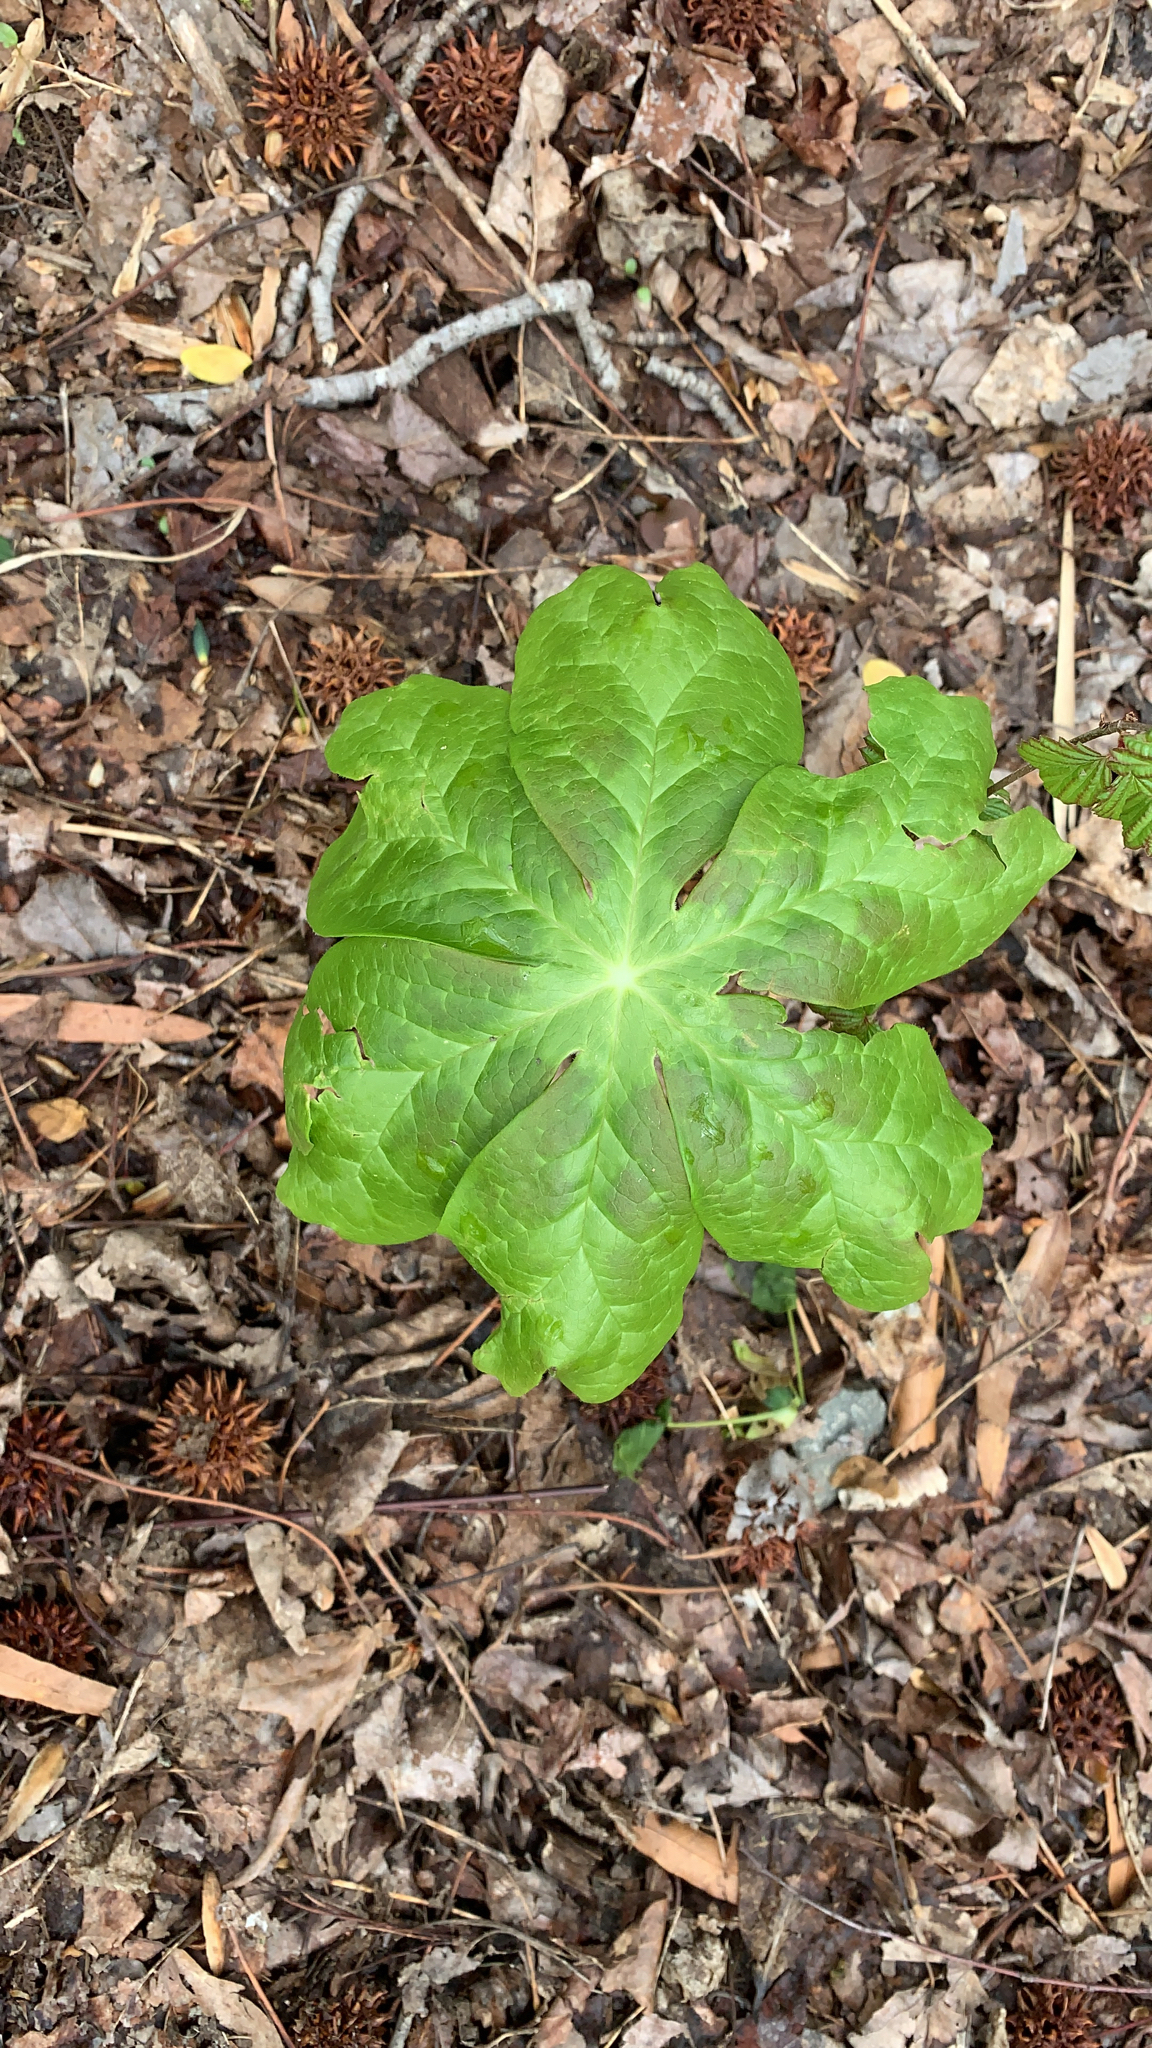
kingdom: Plantae
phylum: Tracheophyta
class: Magnoliopsida
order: Ranunculales
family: Berberidaceae
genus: Podophyllum
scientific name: Podophyllum peltatum
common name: Wild mandrake
